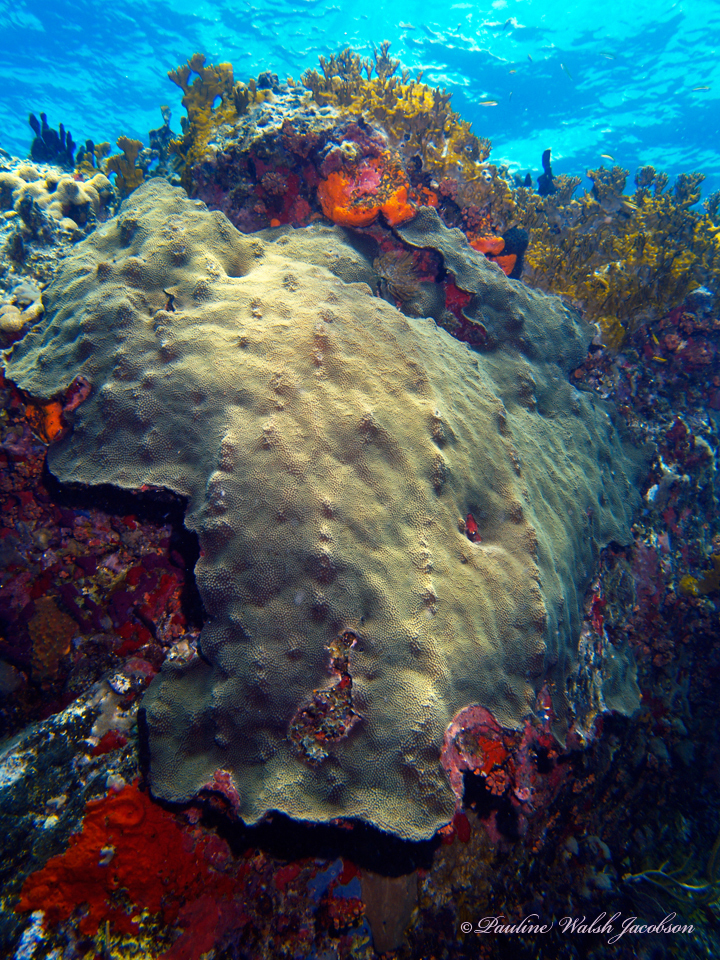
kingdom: Animalia
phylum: Cnidaria
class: Anthozoa
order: Scleractinia
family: Merulinidae
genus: Orbicella
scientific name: Orbicella faveolata
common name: Mountainous star coral
